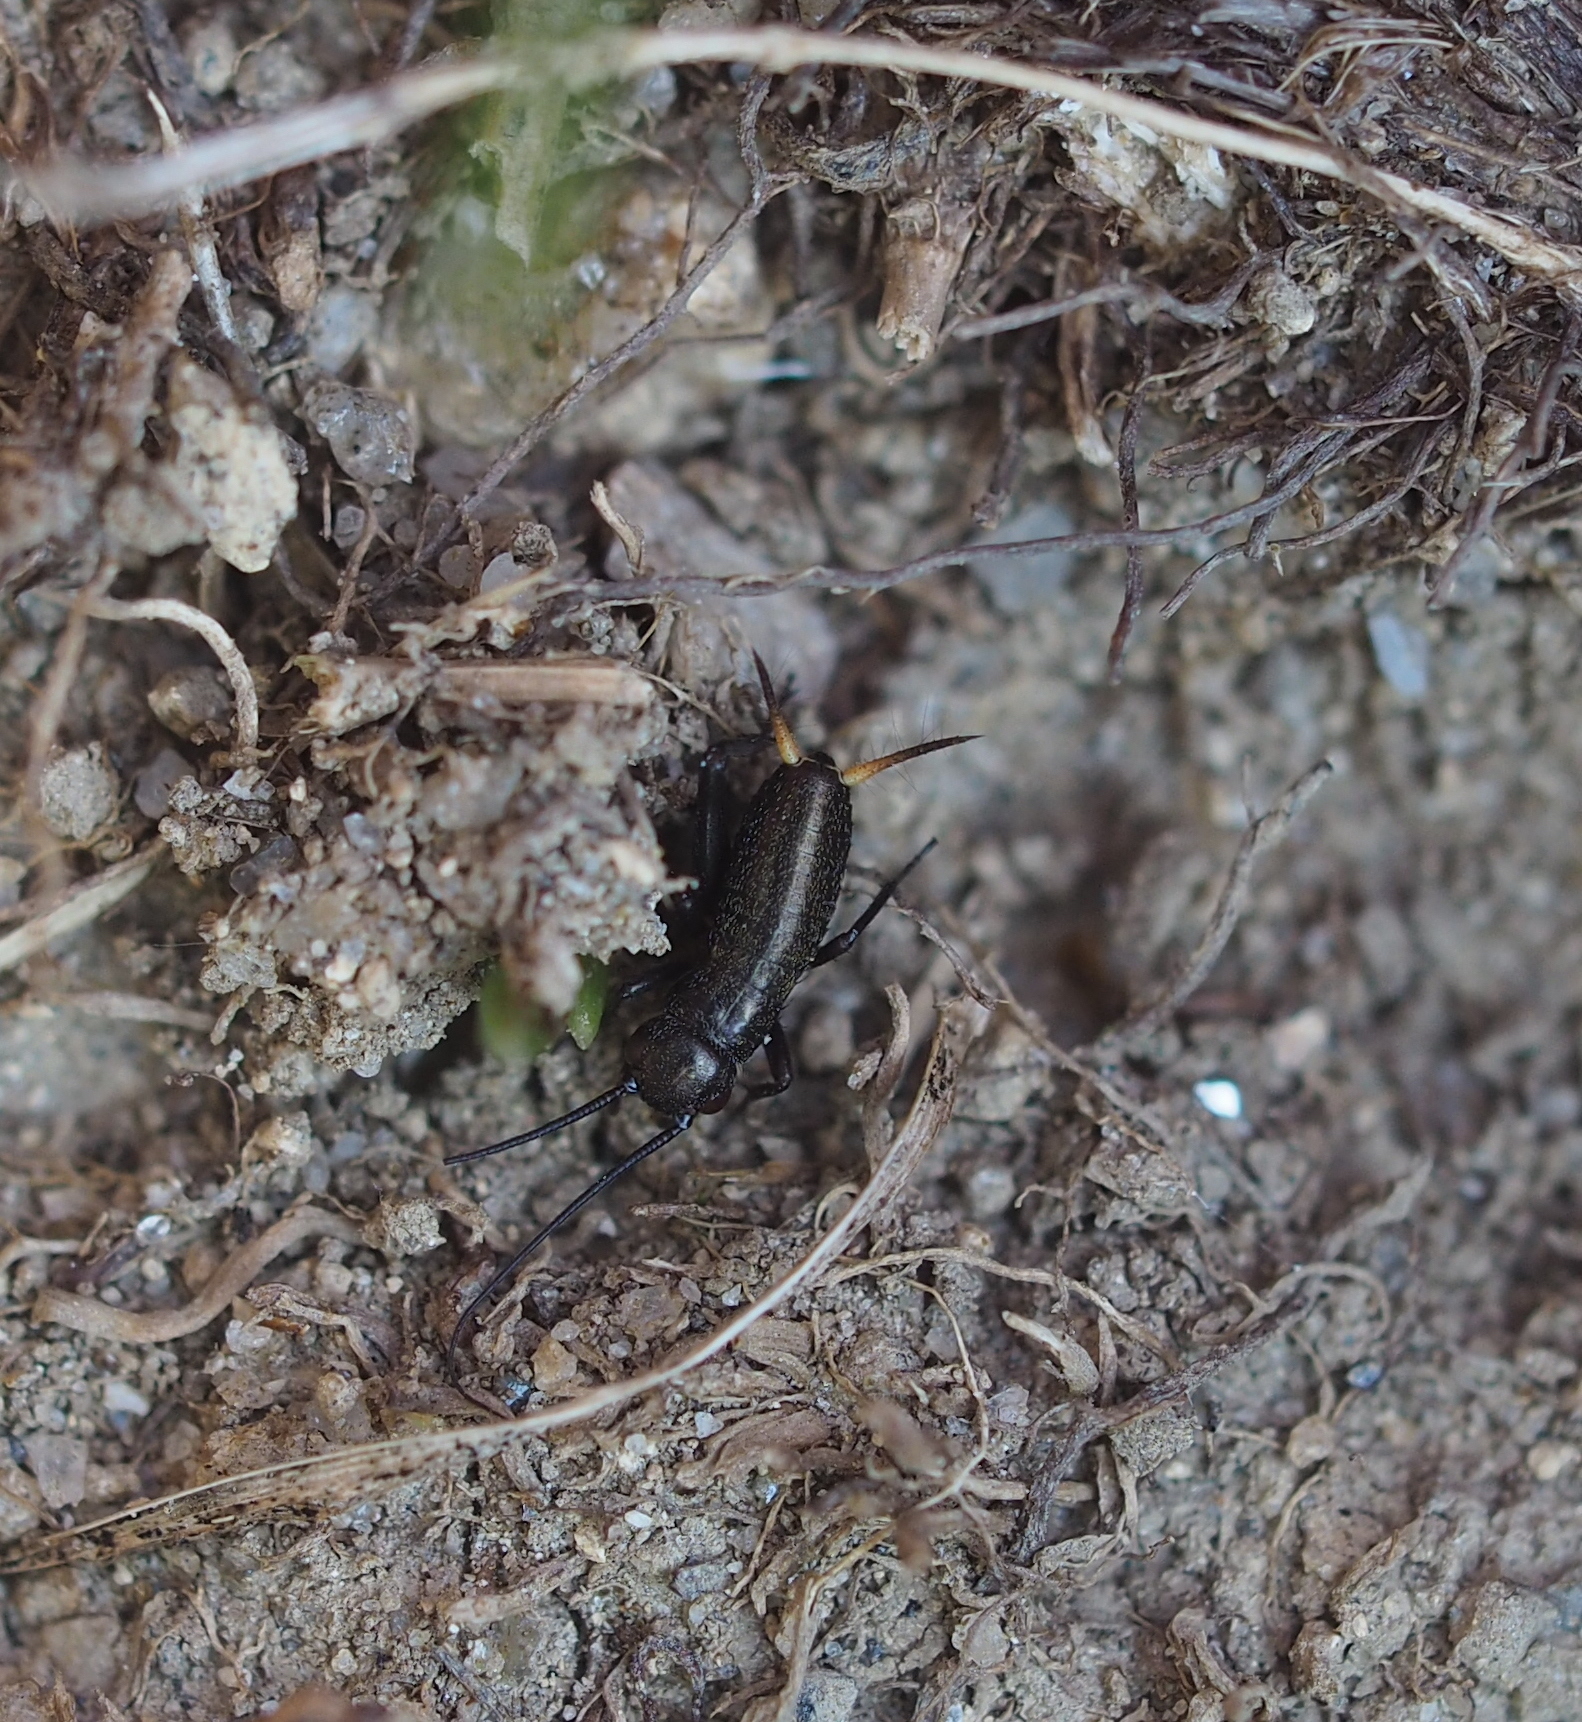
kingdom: Animalia
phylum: Arthropoda
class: Insecta
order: Orthoptera
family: Gryllidae
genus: Gryllus
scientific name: Gryllus campestris
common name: Field cricket
